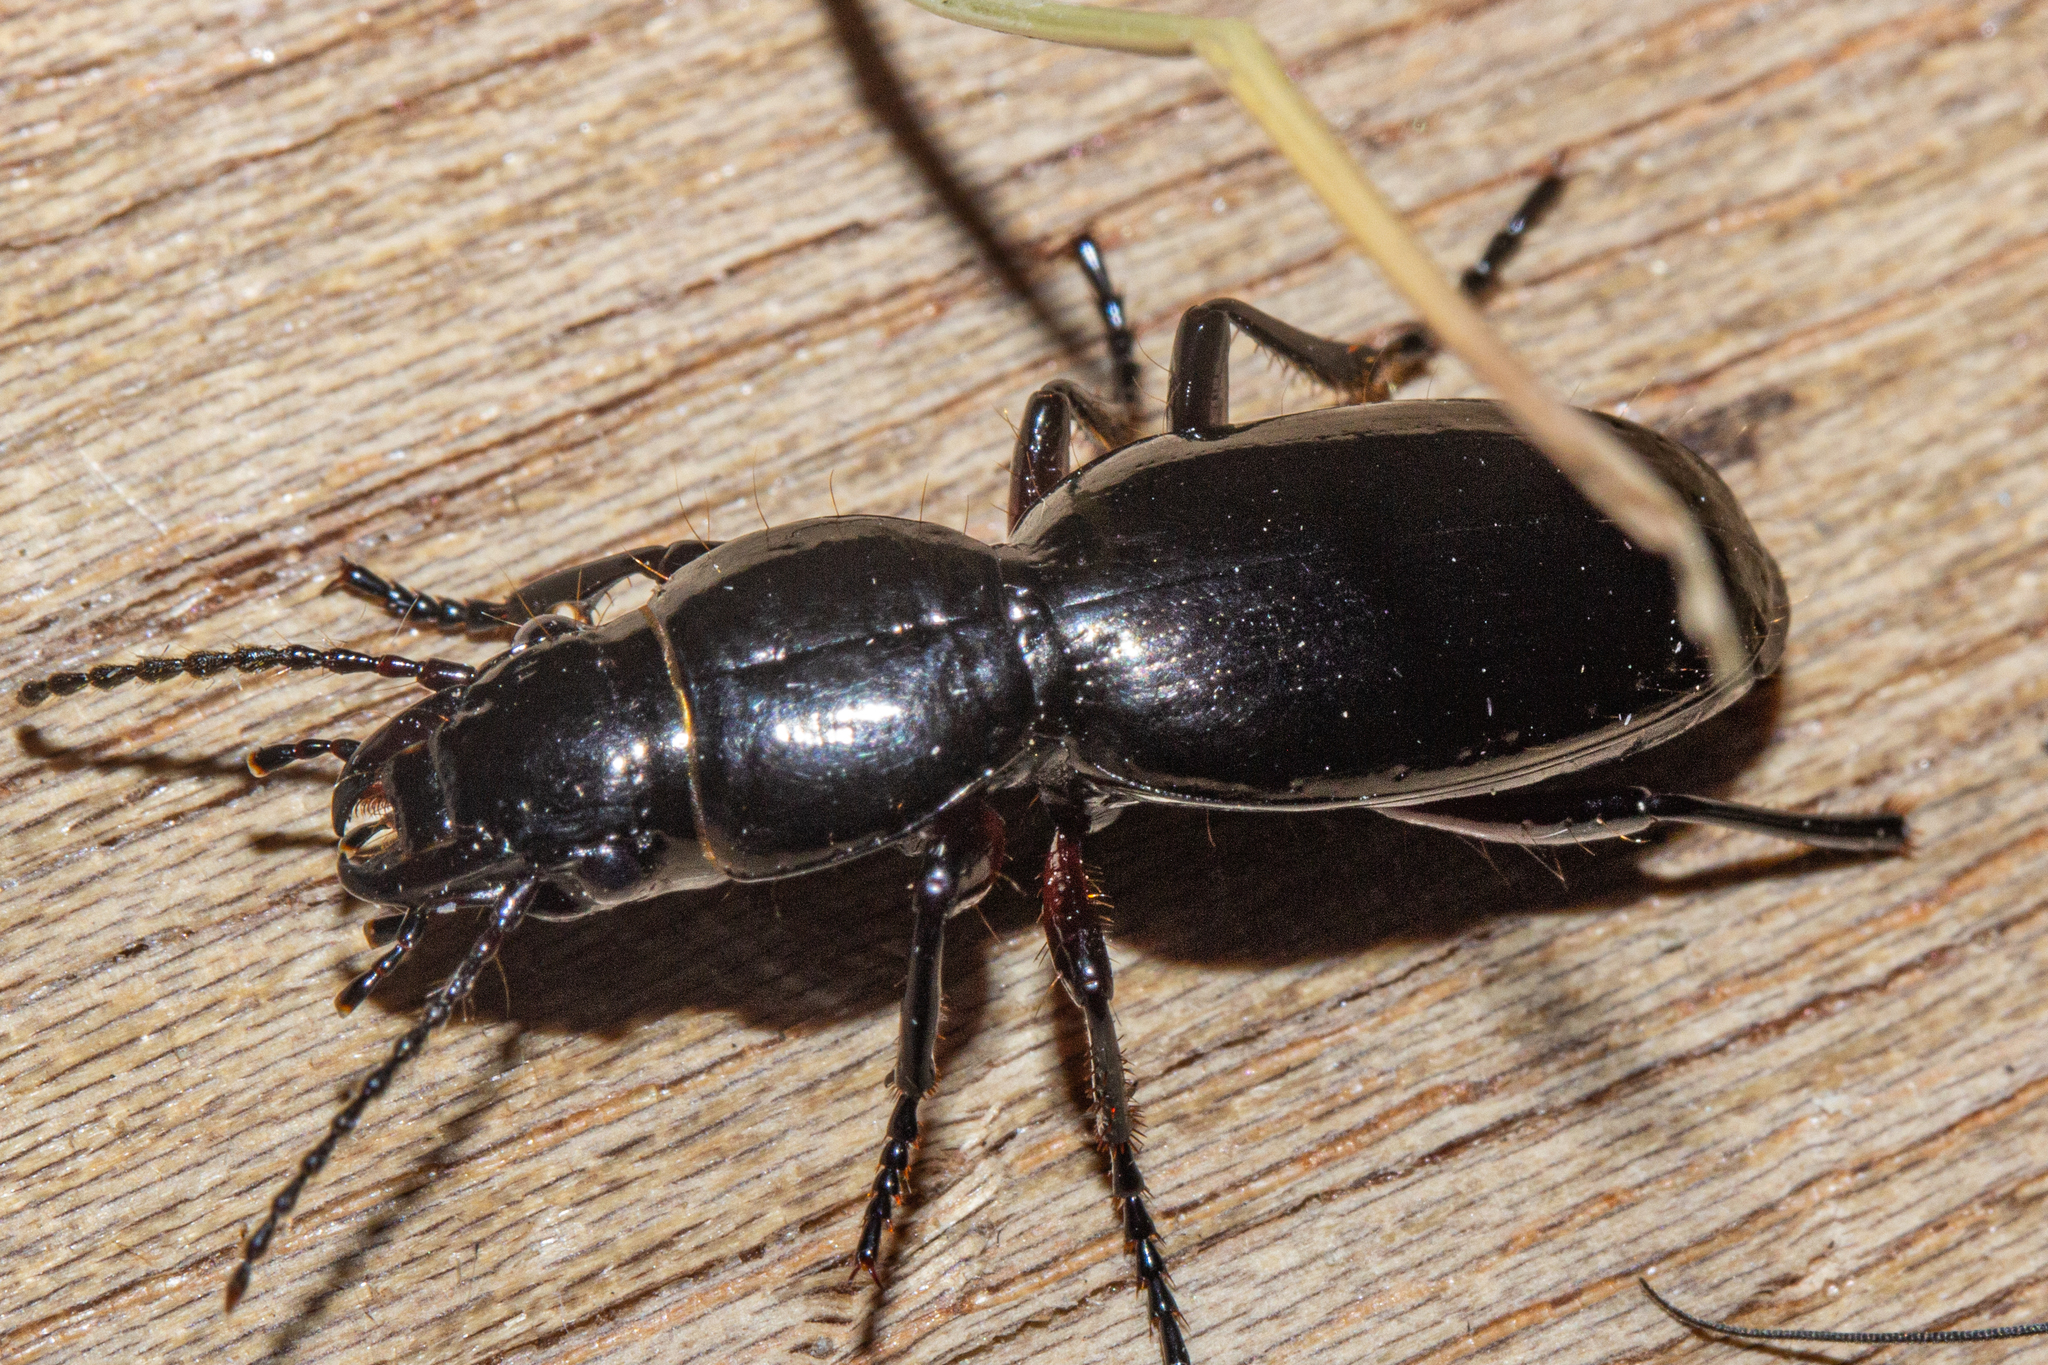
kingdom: Animalia
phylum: Arthropoda
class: Insecta
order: Coleoptera
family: Carabidae
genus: Oregus
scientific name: Oregus aereus
